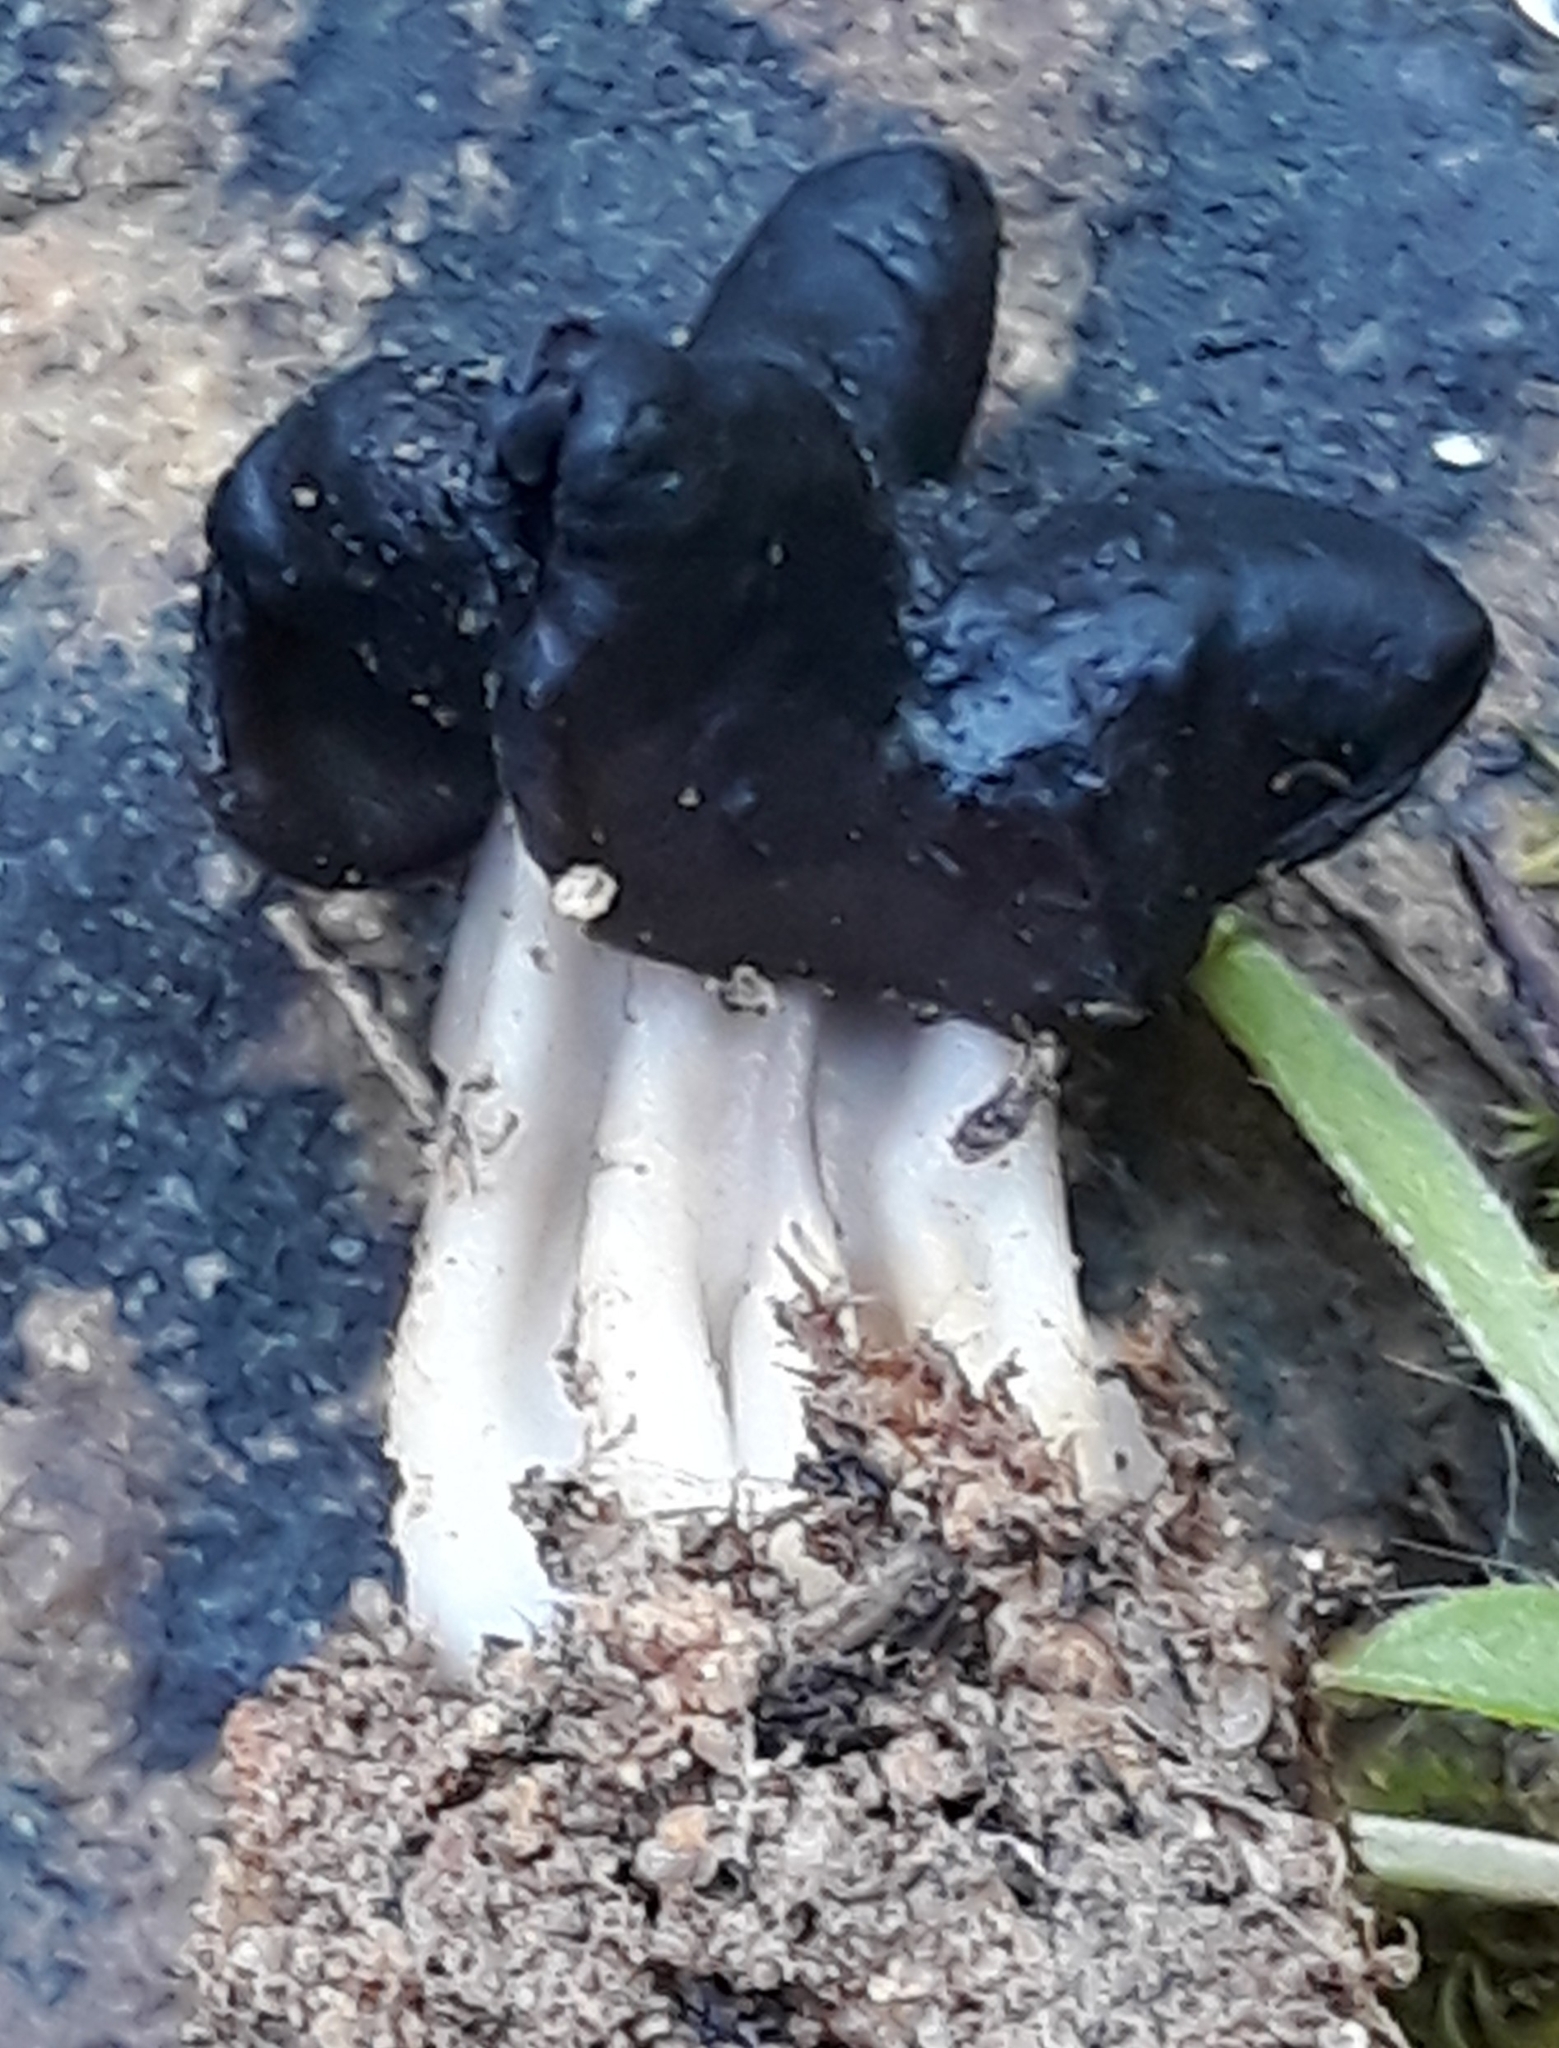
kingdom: Fungi
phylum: Ascomycota
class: Pezizomycetes
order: Pezizales
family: Helvellaceae
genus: Helvella
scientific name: Helvella juniperi
